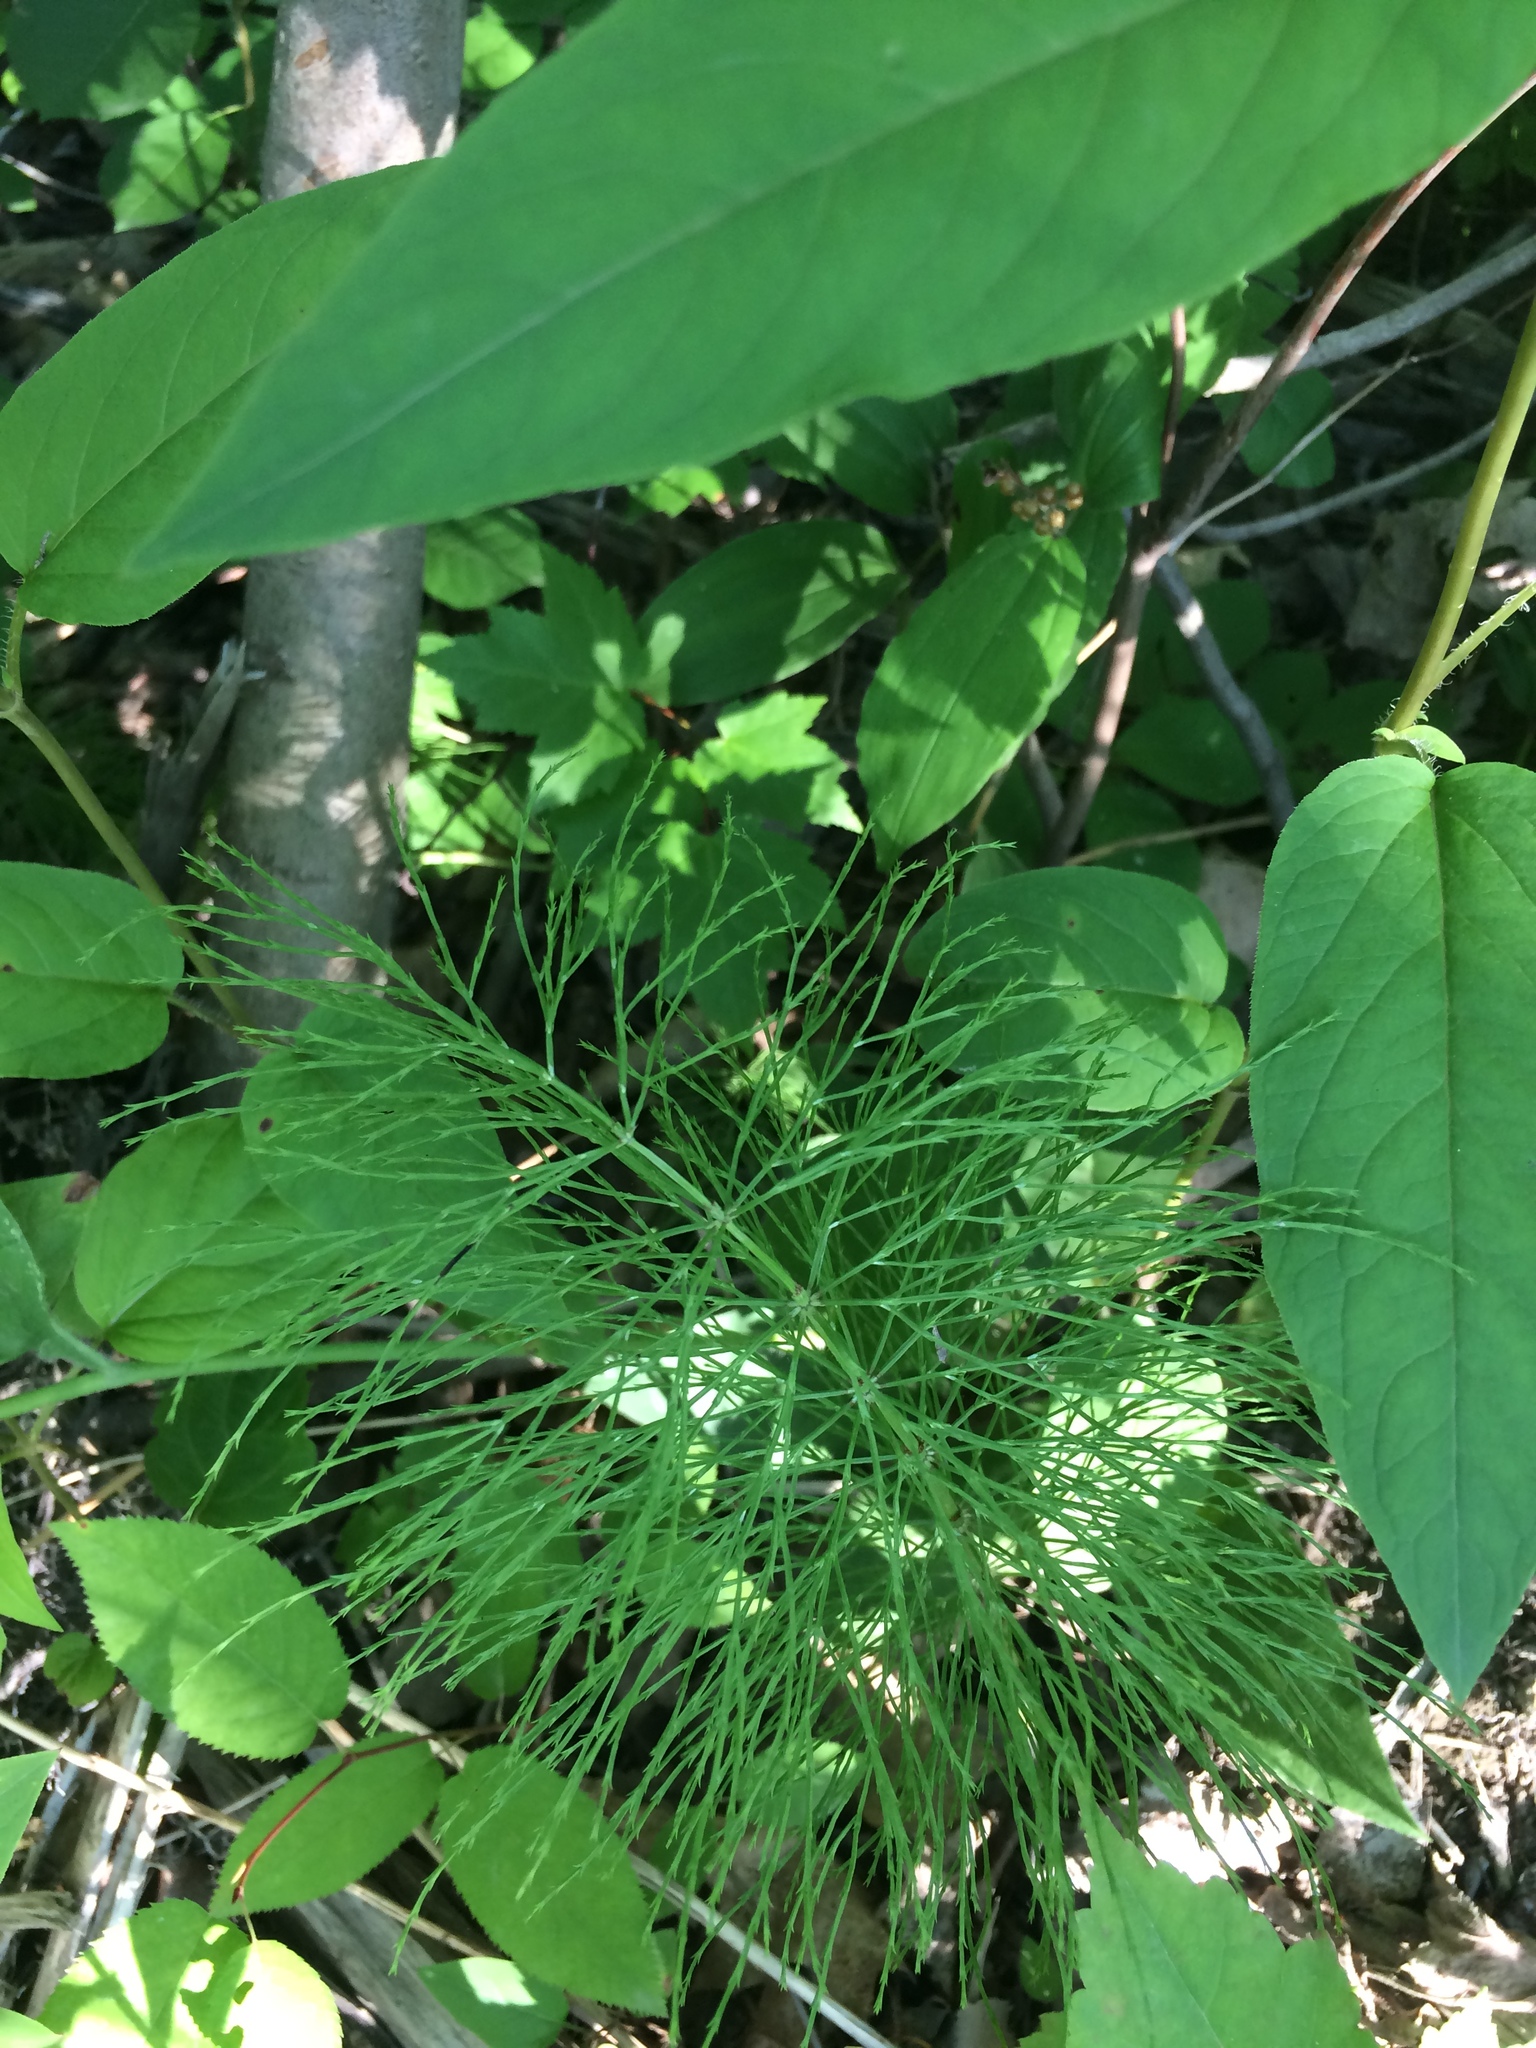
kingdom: Plantae
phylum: Tracheophyta
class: Polypodiopsida
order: Equisetales
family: Equisetaceae
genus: Equisetum
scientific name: Equisetum sylvaticum
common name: Wood horsetail
